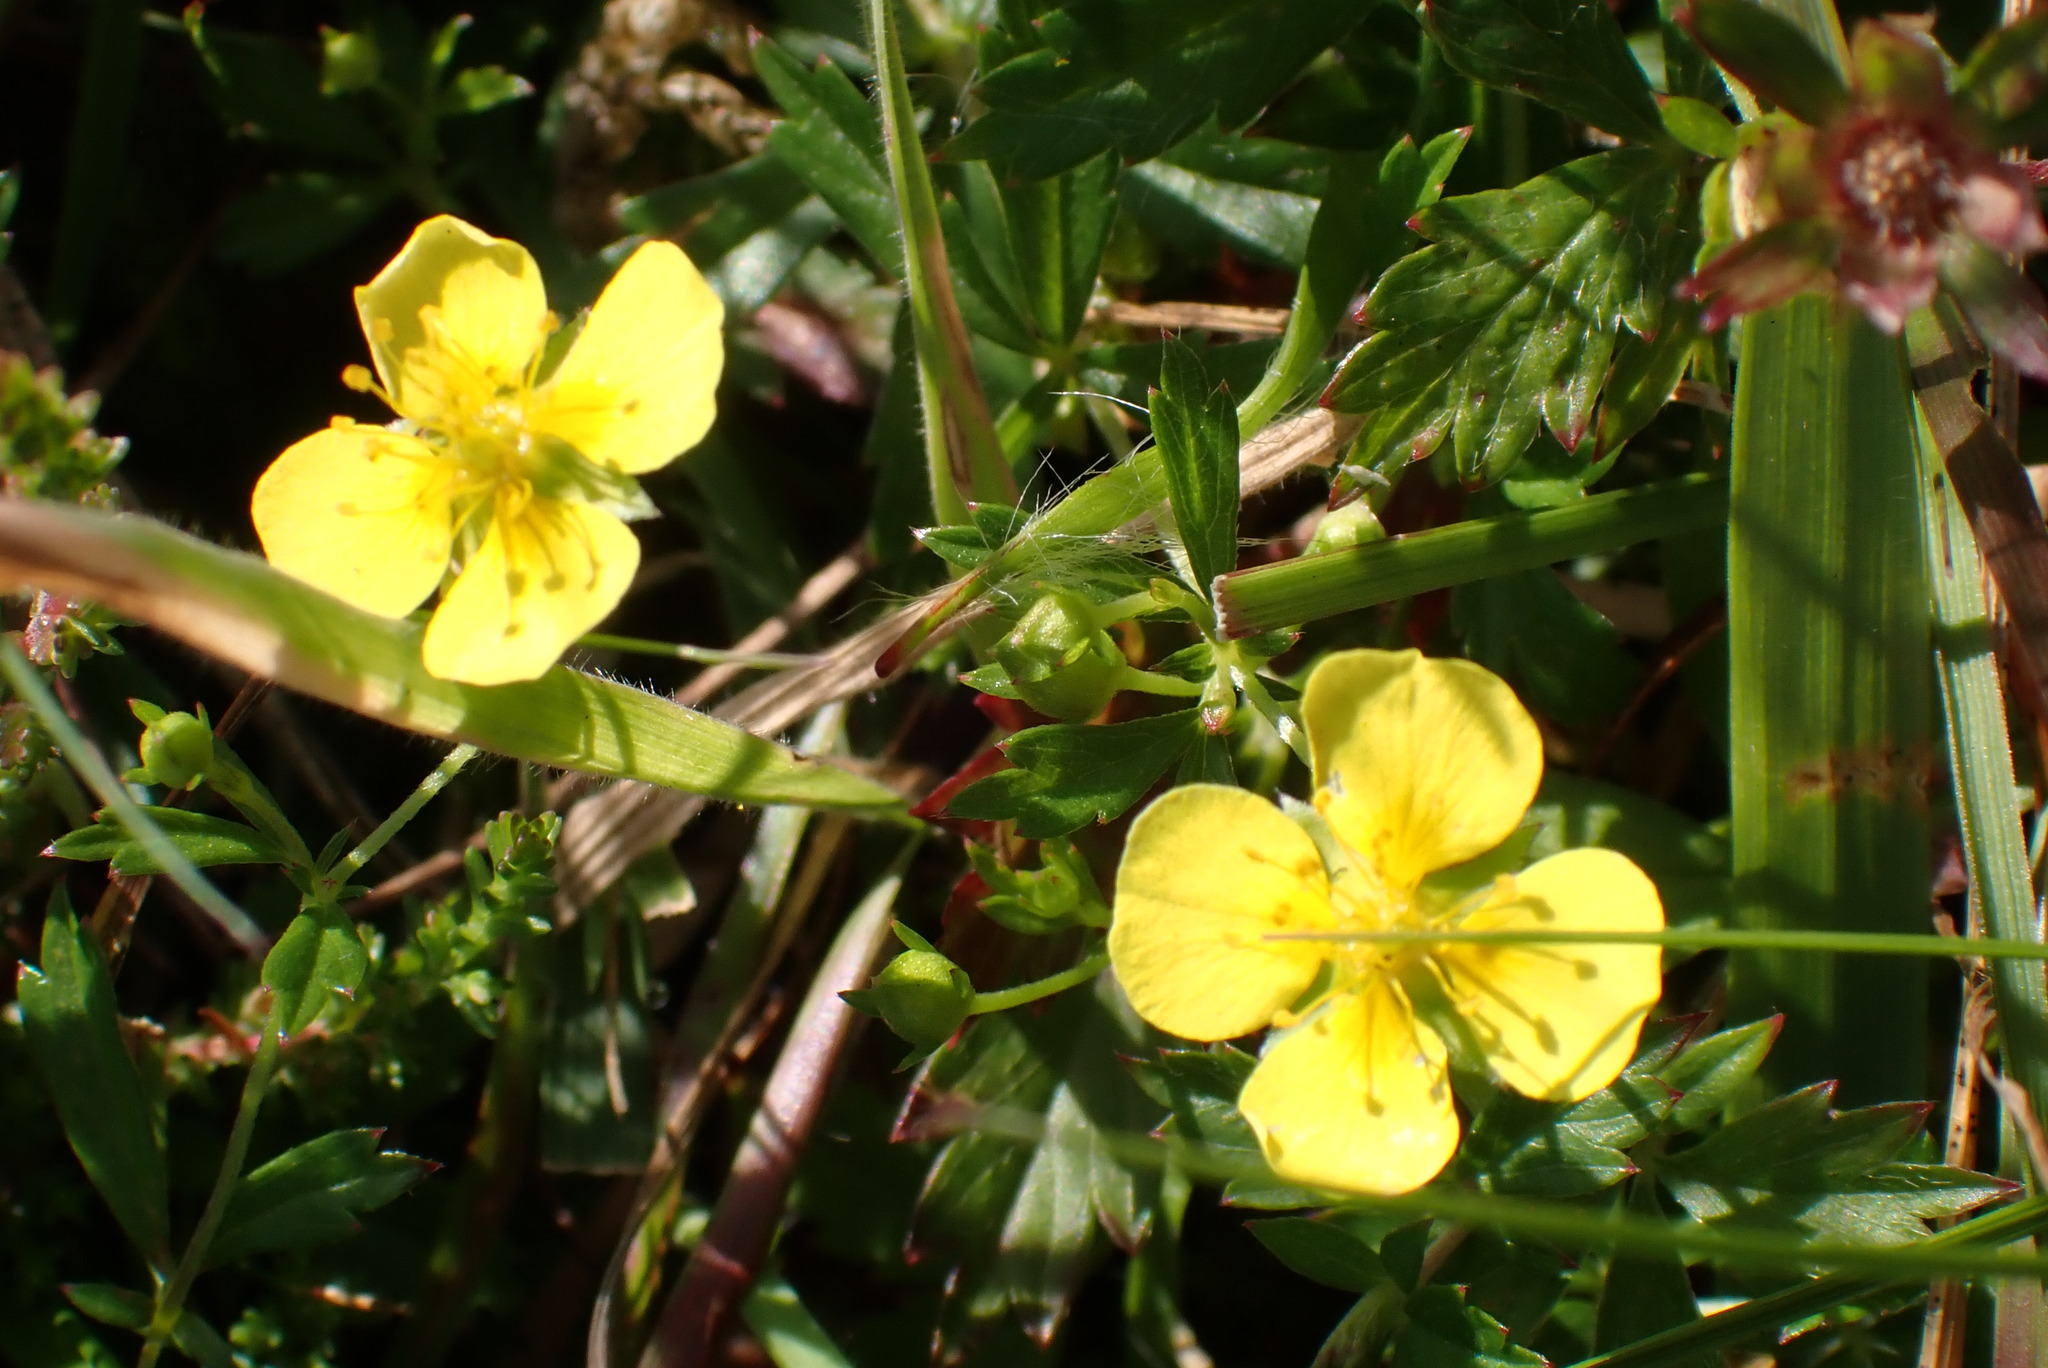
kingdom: Plantae
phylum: Tracheophyta
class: Magnoliopsida
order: Rosales
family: Rosaceae
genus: Potentilla
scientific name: Potentilla erecta
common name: Tormentil
